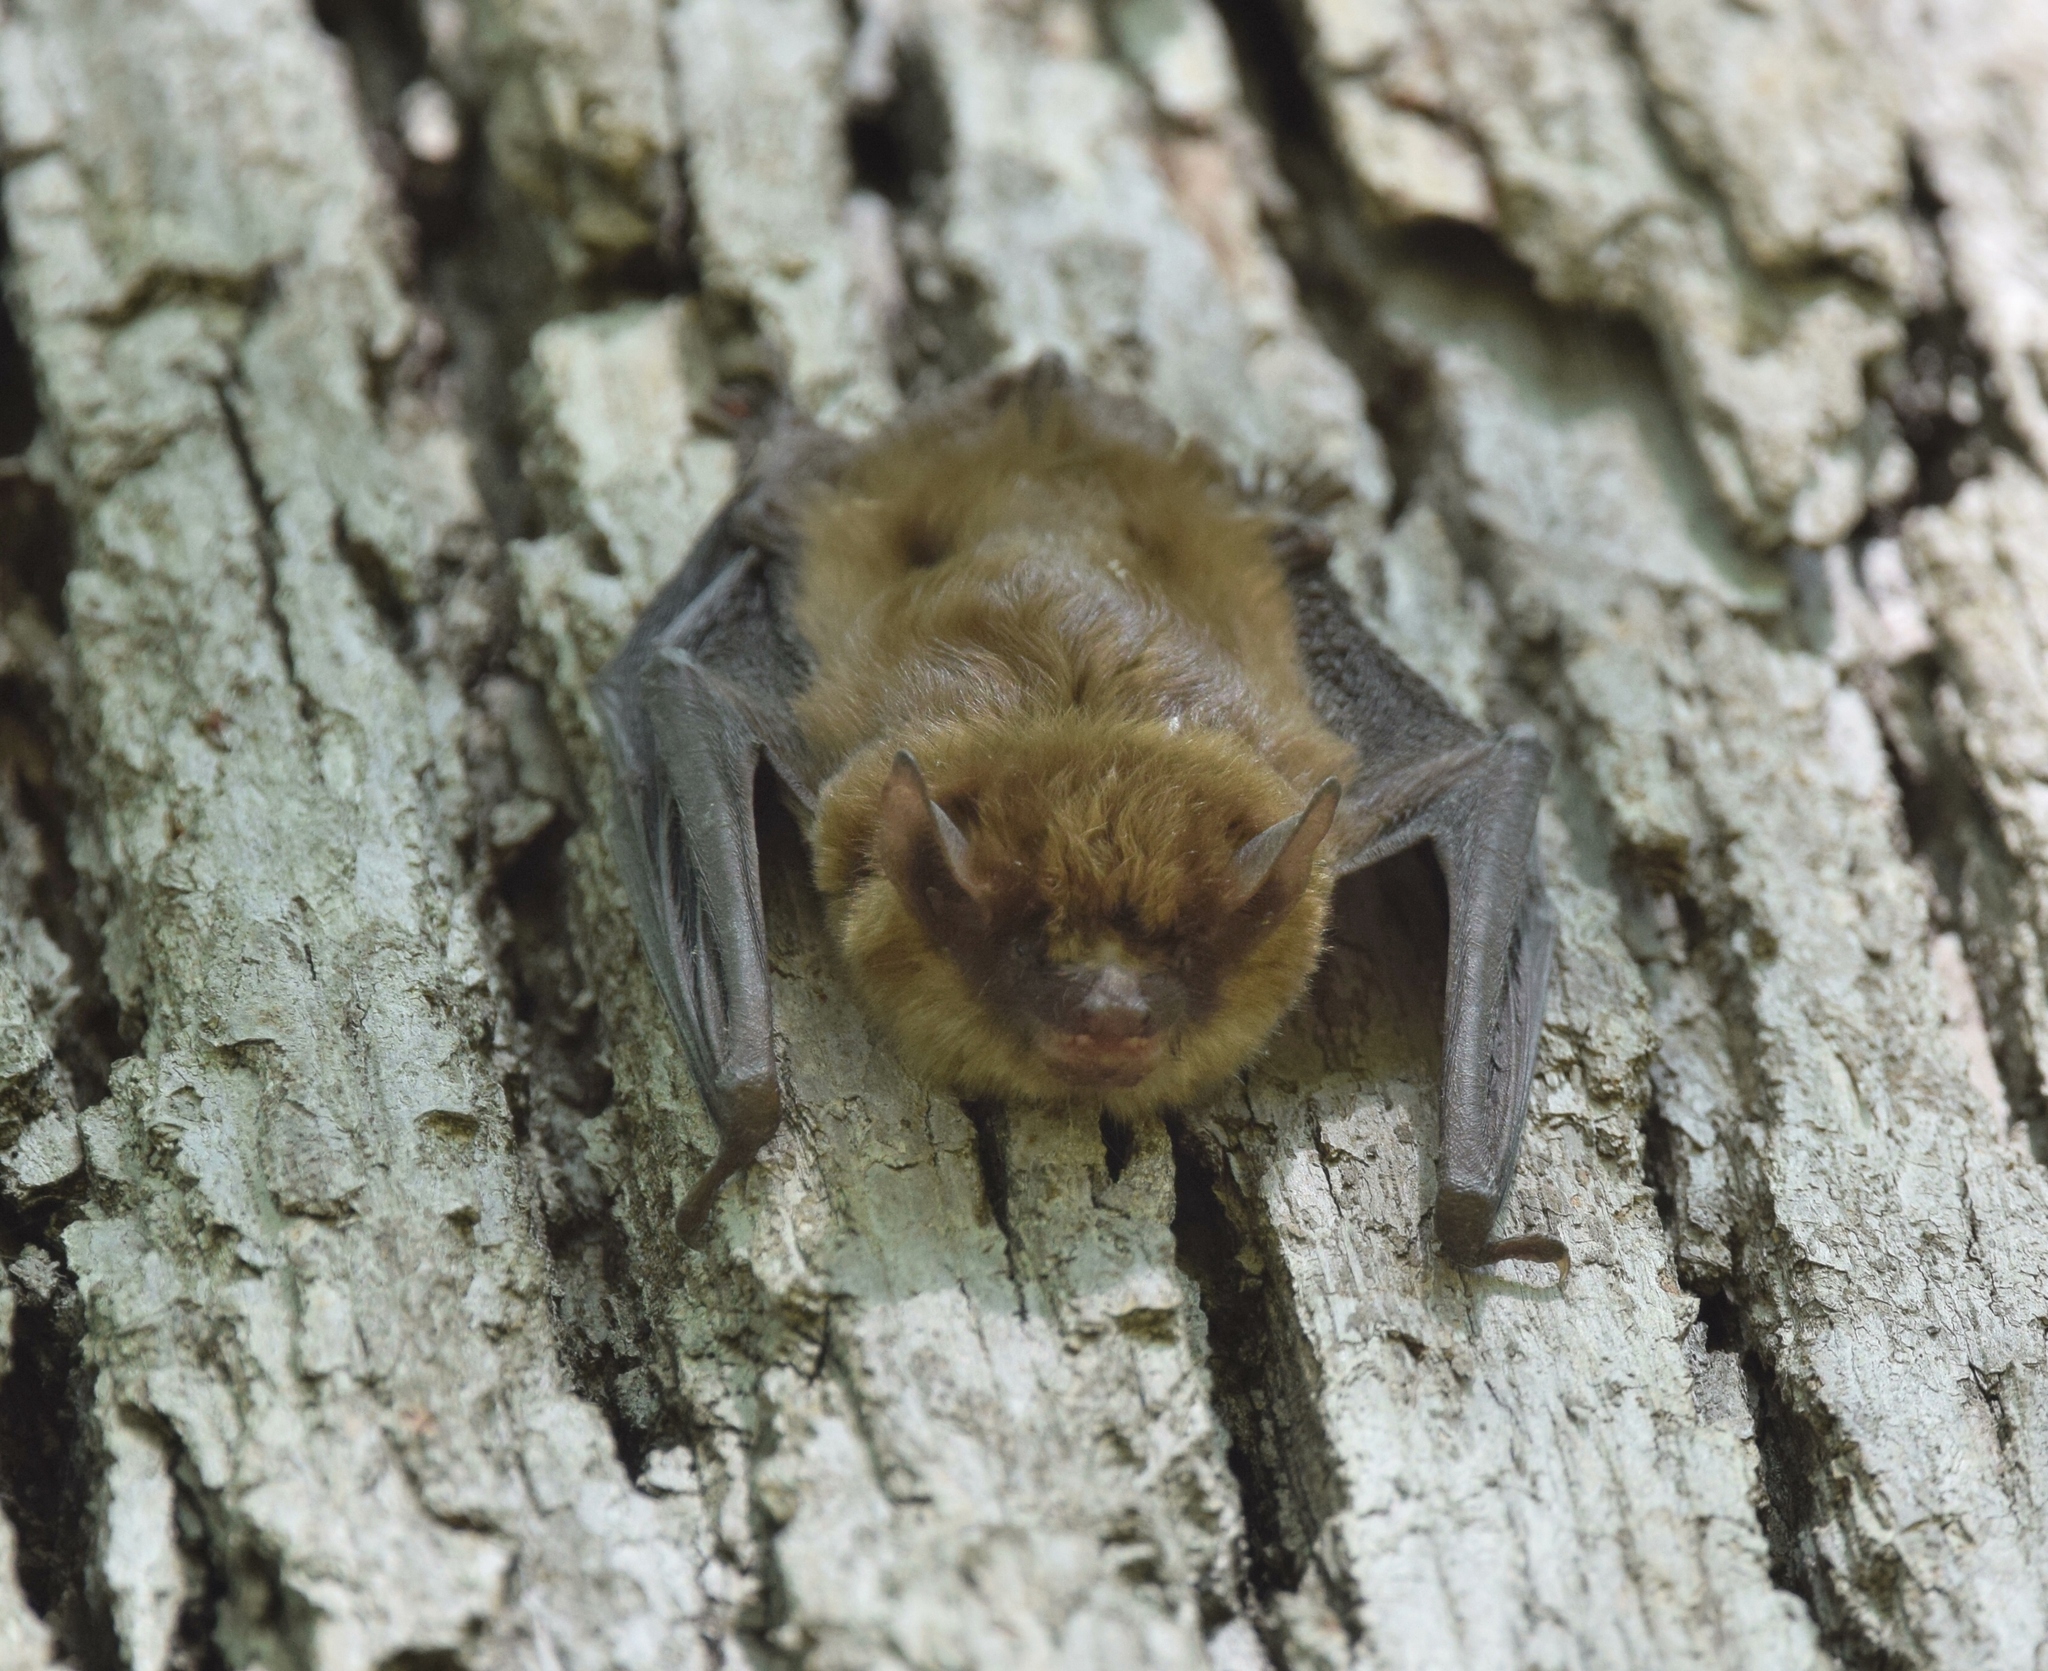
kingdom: Animalia
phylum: Chordata
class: Mammalia
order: Chiroptera
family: Vespertilionidae
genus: Eptesicus
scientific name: Eptesicus fuscus
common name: Big brown bat
